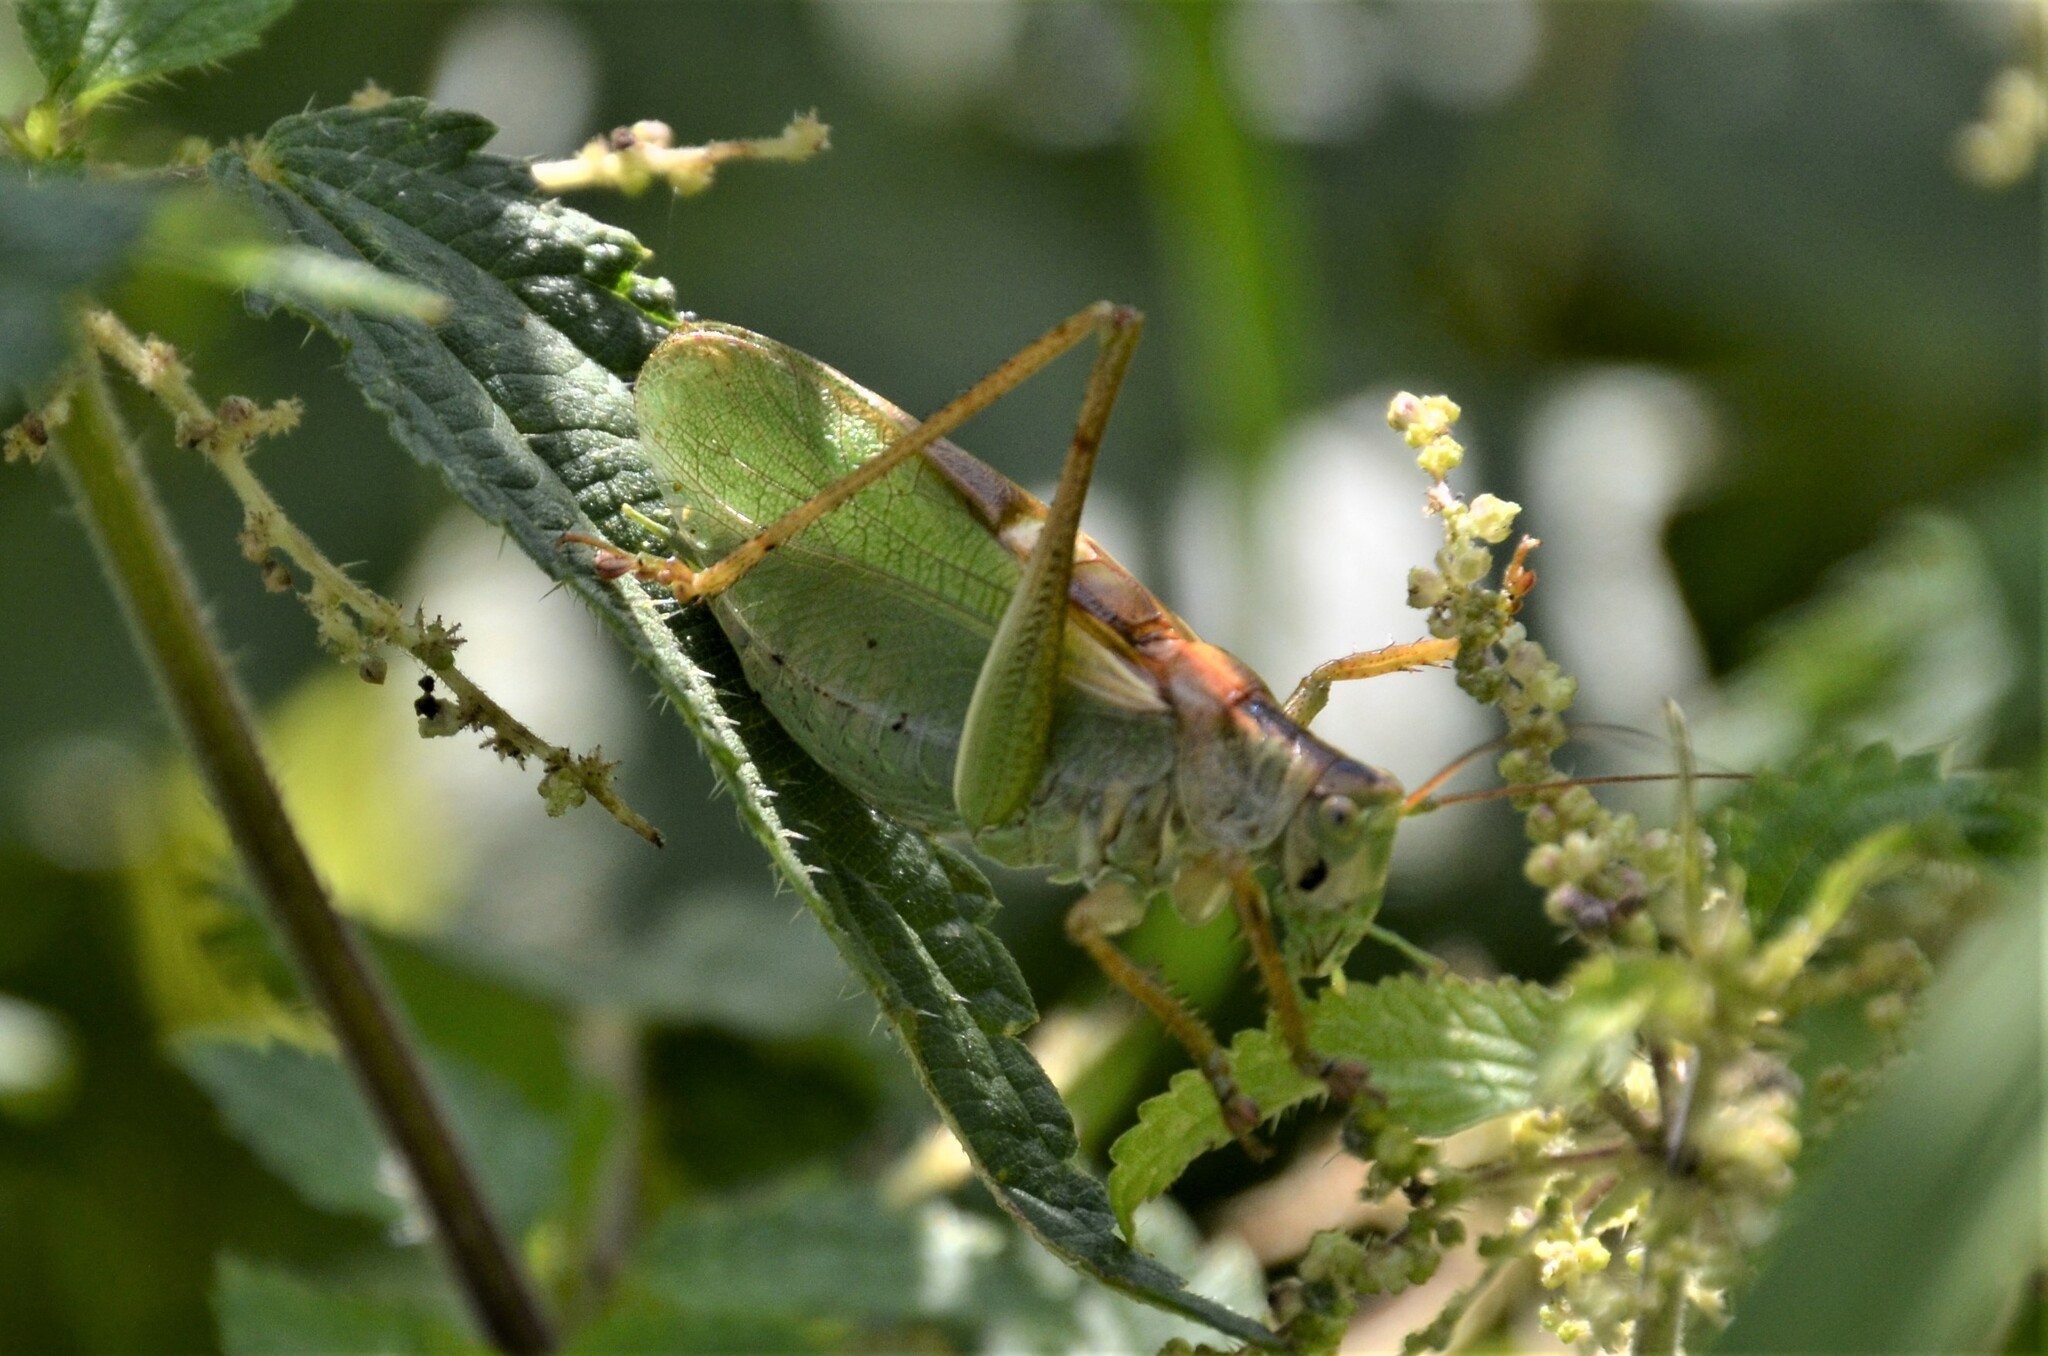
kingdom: Animalia
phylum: Arthropoda
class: Insecta
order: Orthoptera
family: Tettigoniidae
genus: Tettigonia
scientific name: Tettigonia cantans
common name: Upland green bush-cricket
